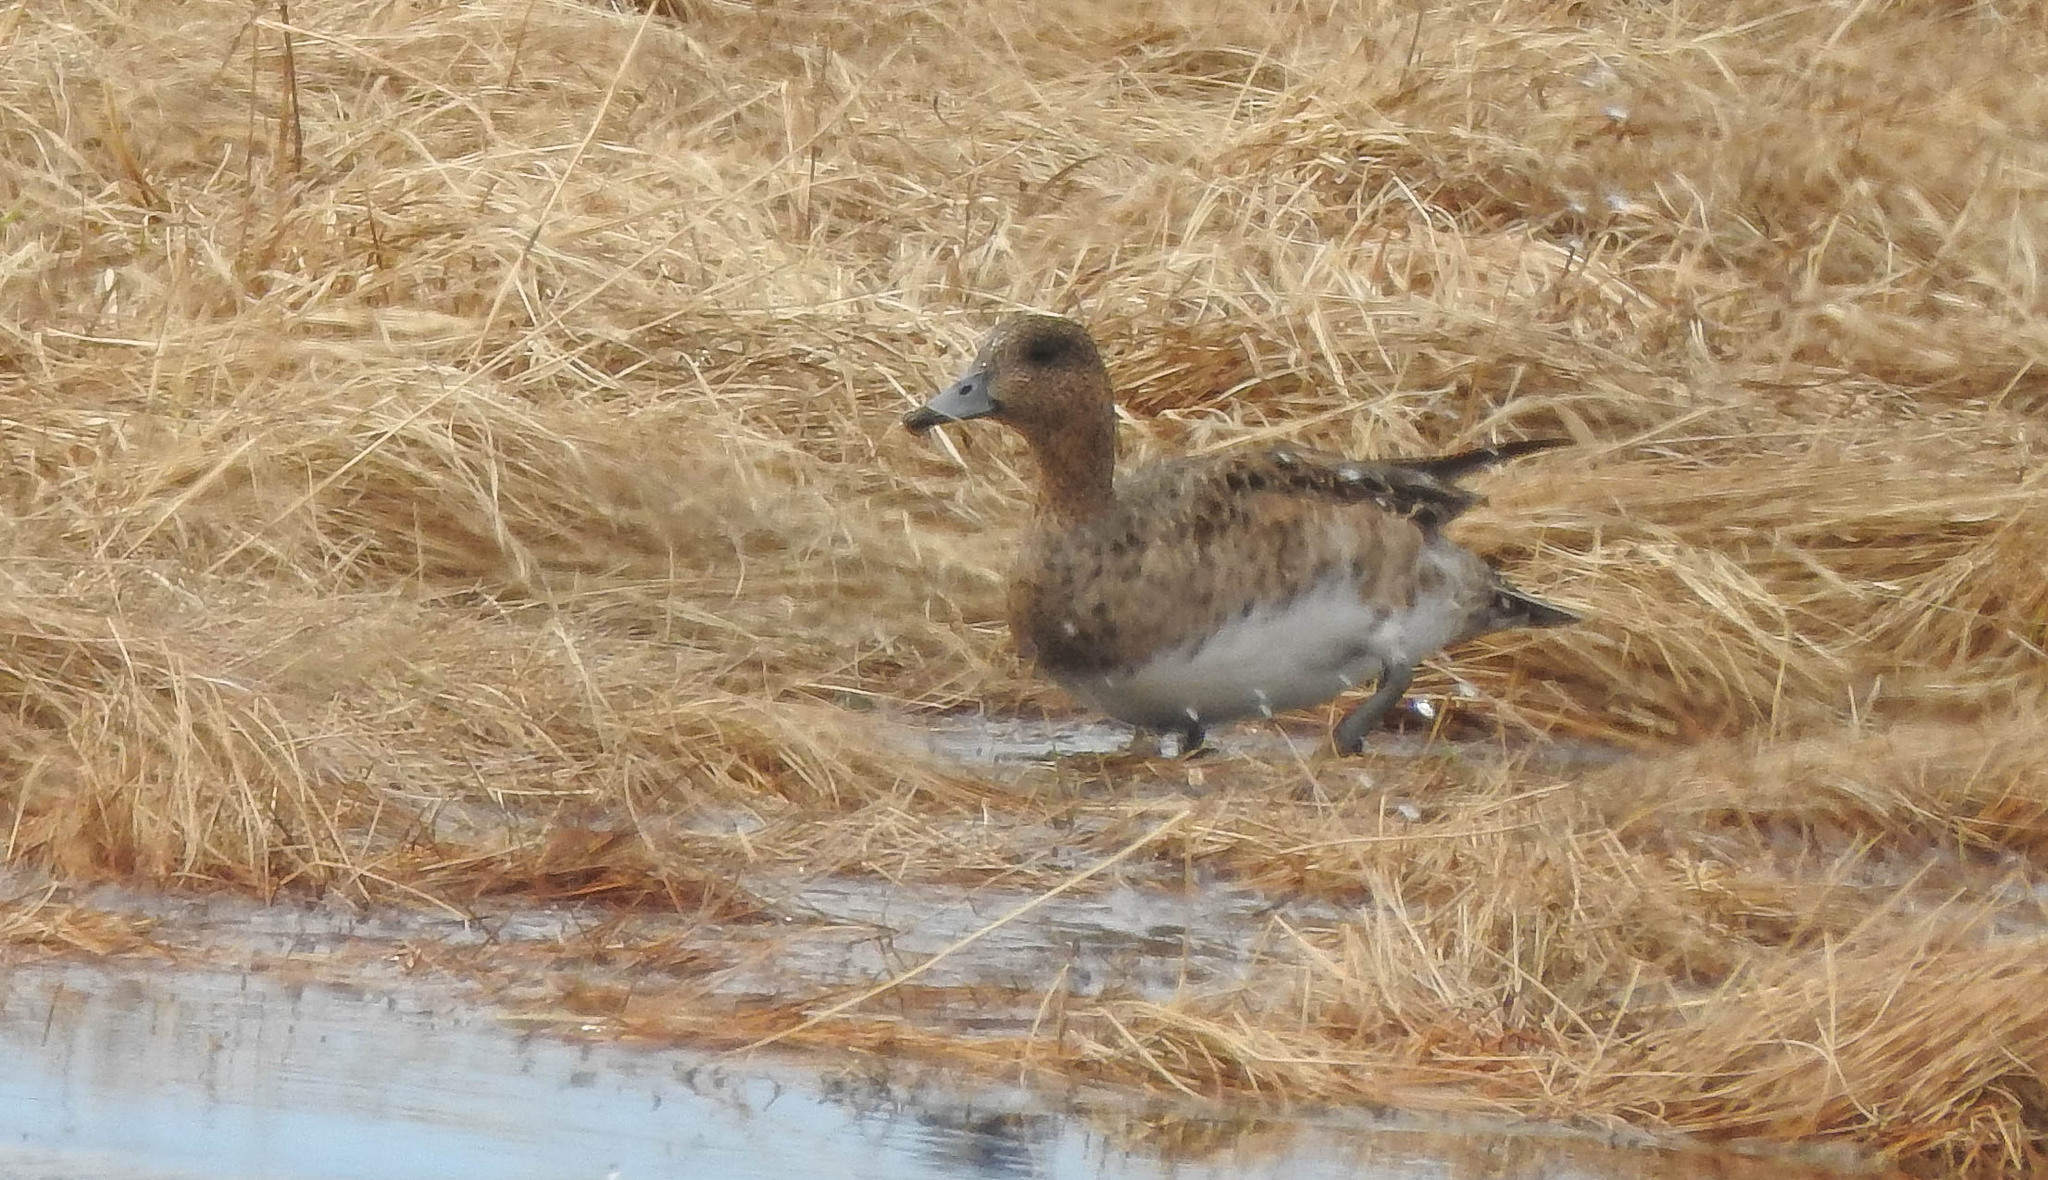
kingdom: Animalia
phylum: Chordata
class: Aves
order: Anseriformes
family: Anatidae
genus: Mareca
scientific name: Mareca penelope
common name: Eurasian wigeon
